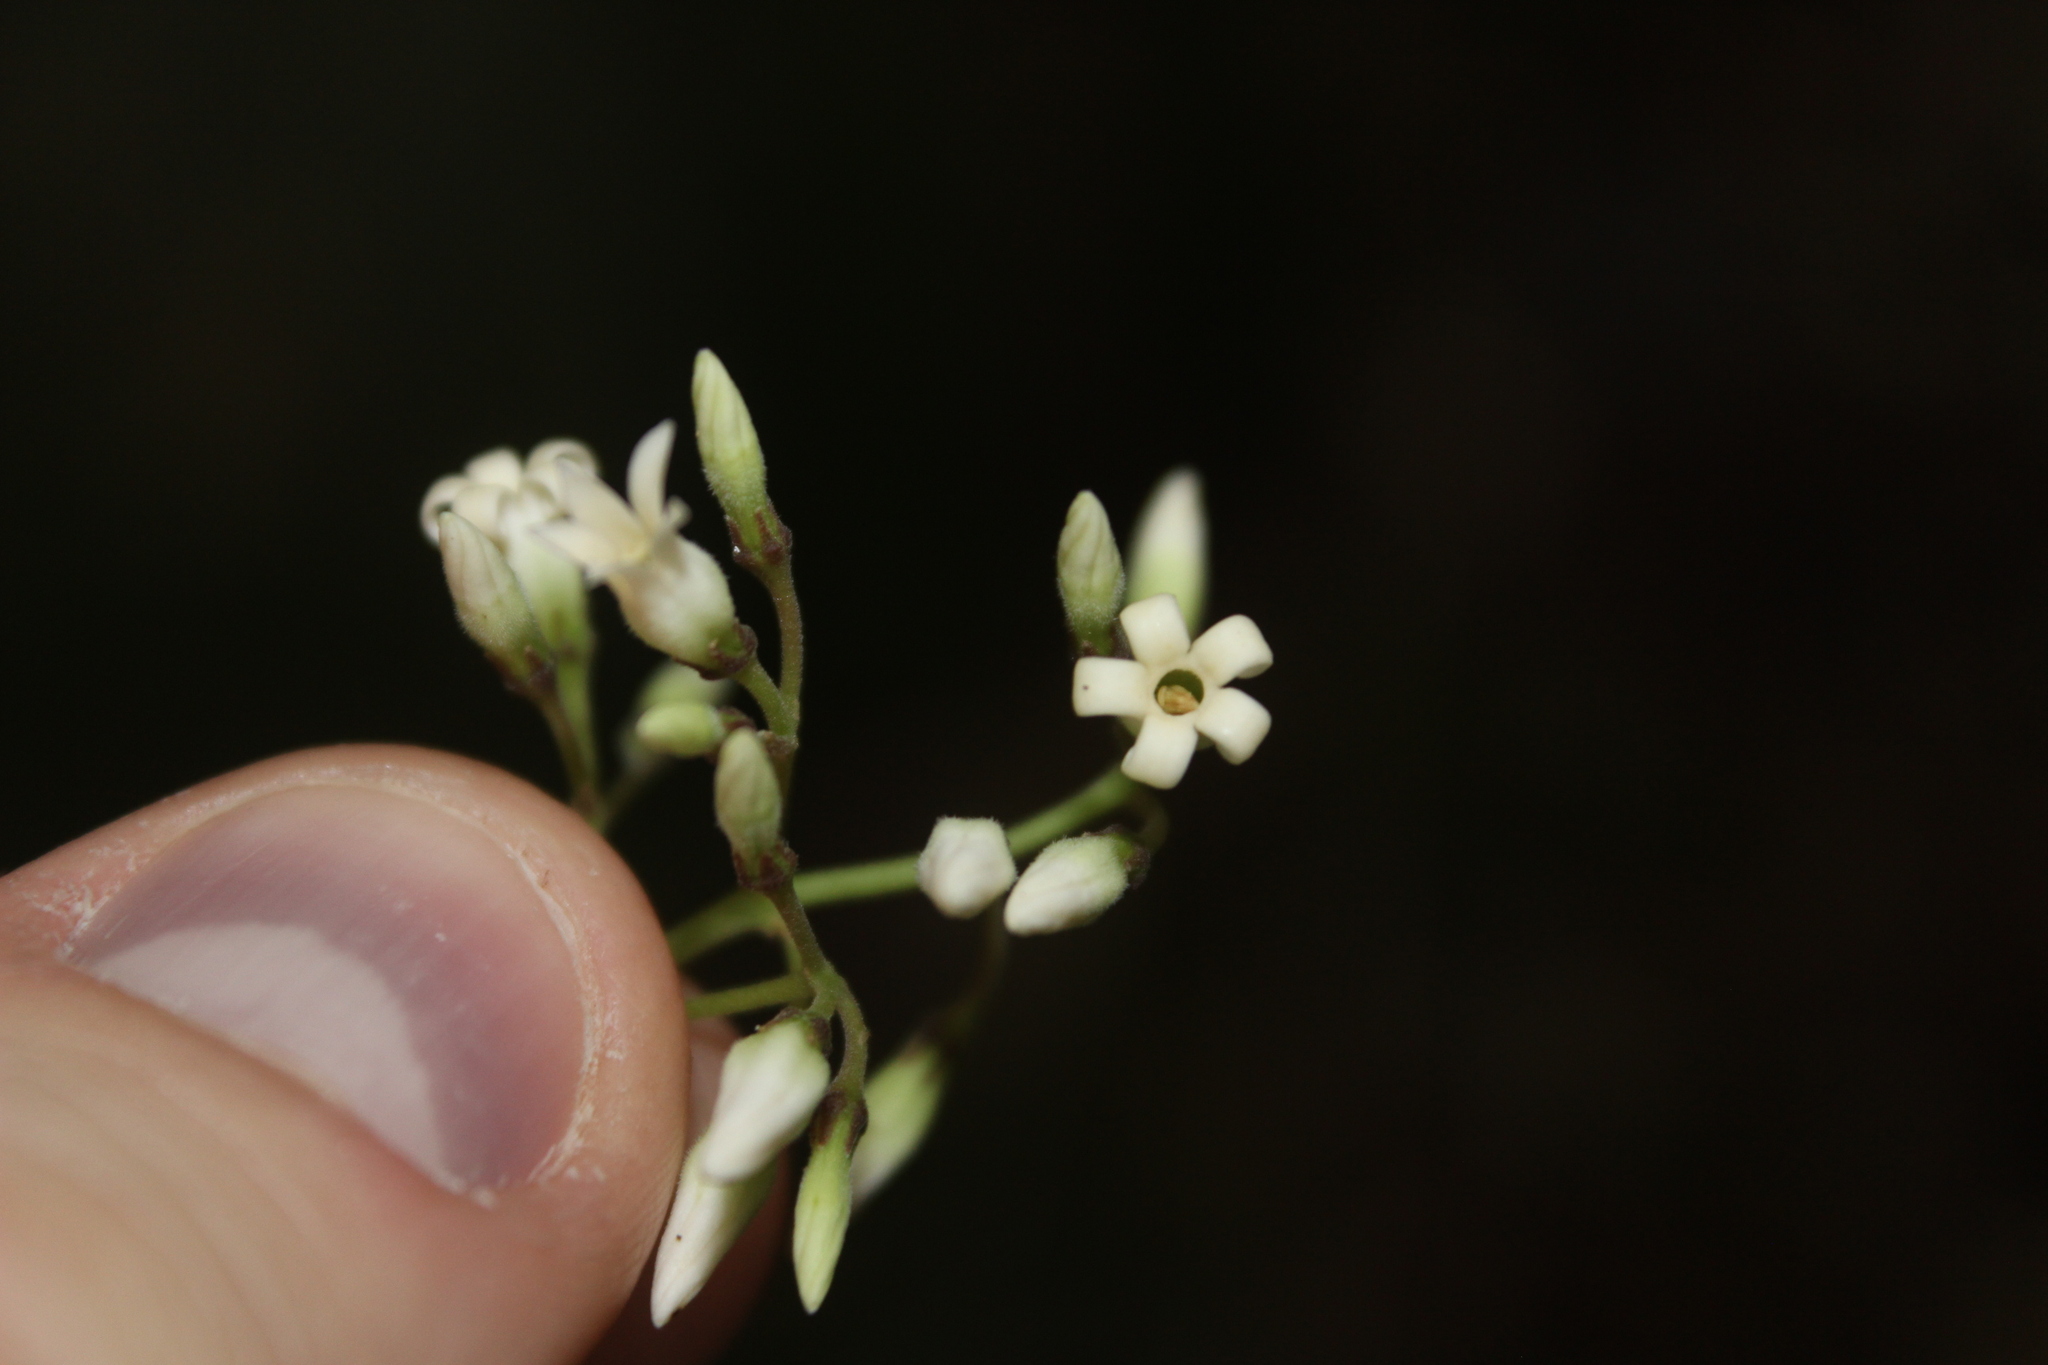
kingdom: Plantae
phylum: Tracheophyta
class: Magnoliopsida
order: Gentianales
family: Apocynaceae
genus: Parsonsia
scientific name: Parsonsia heterophylla
